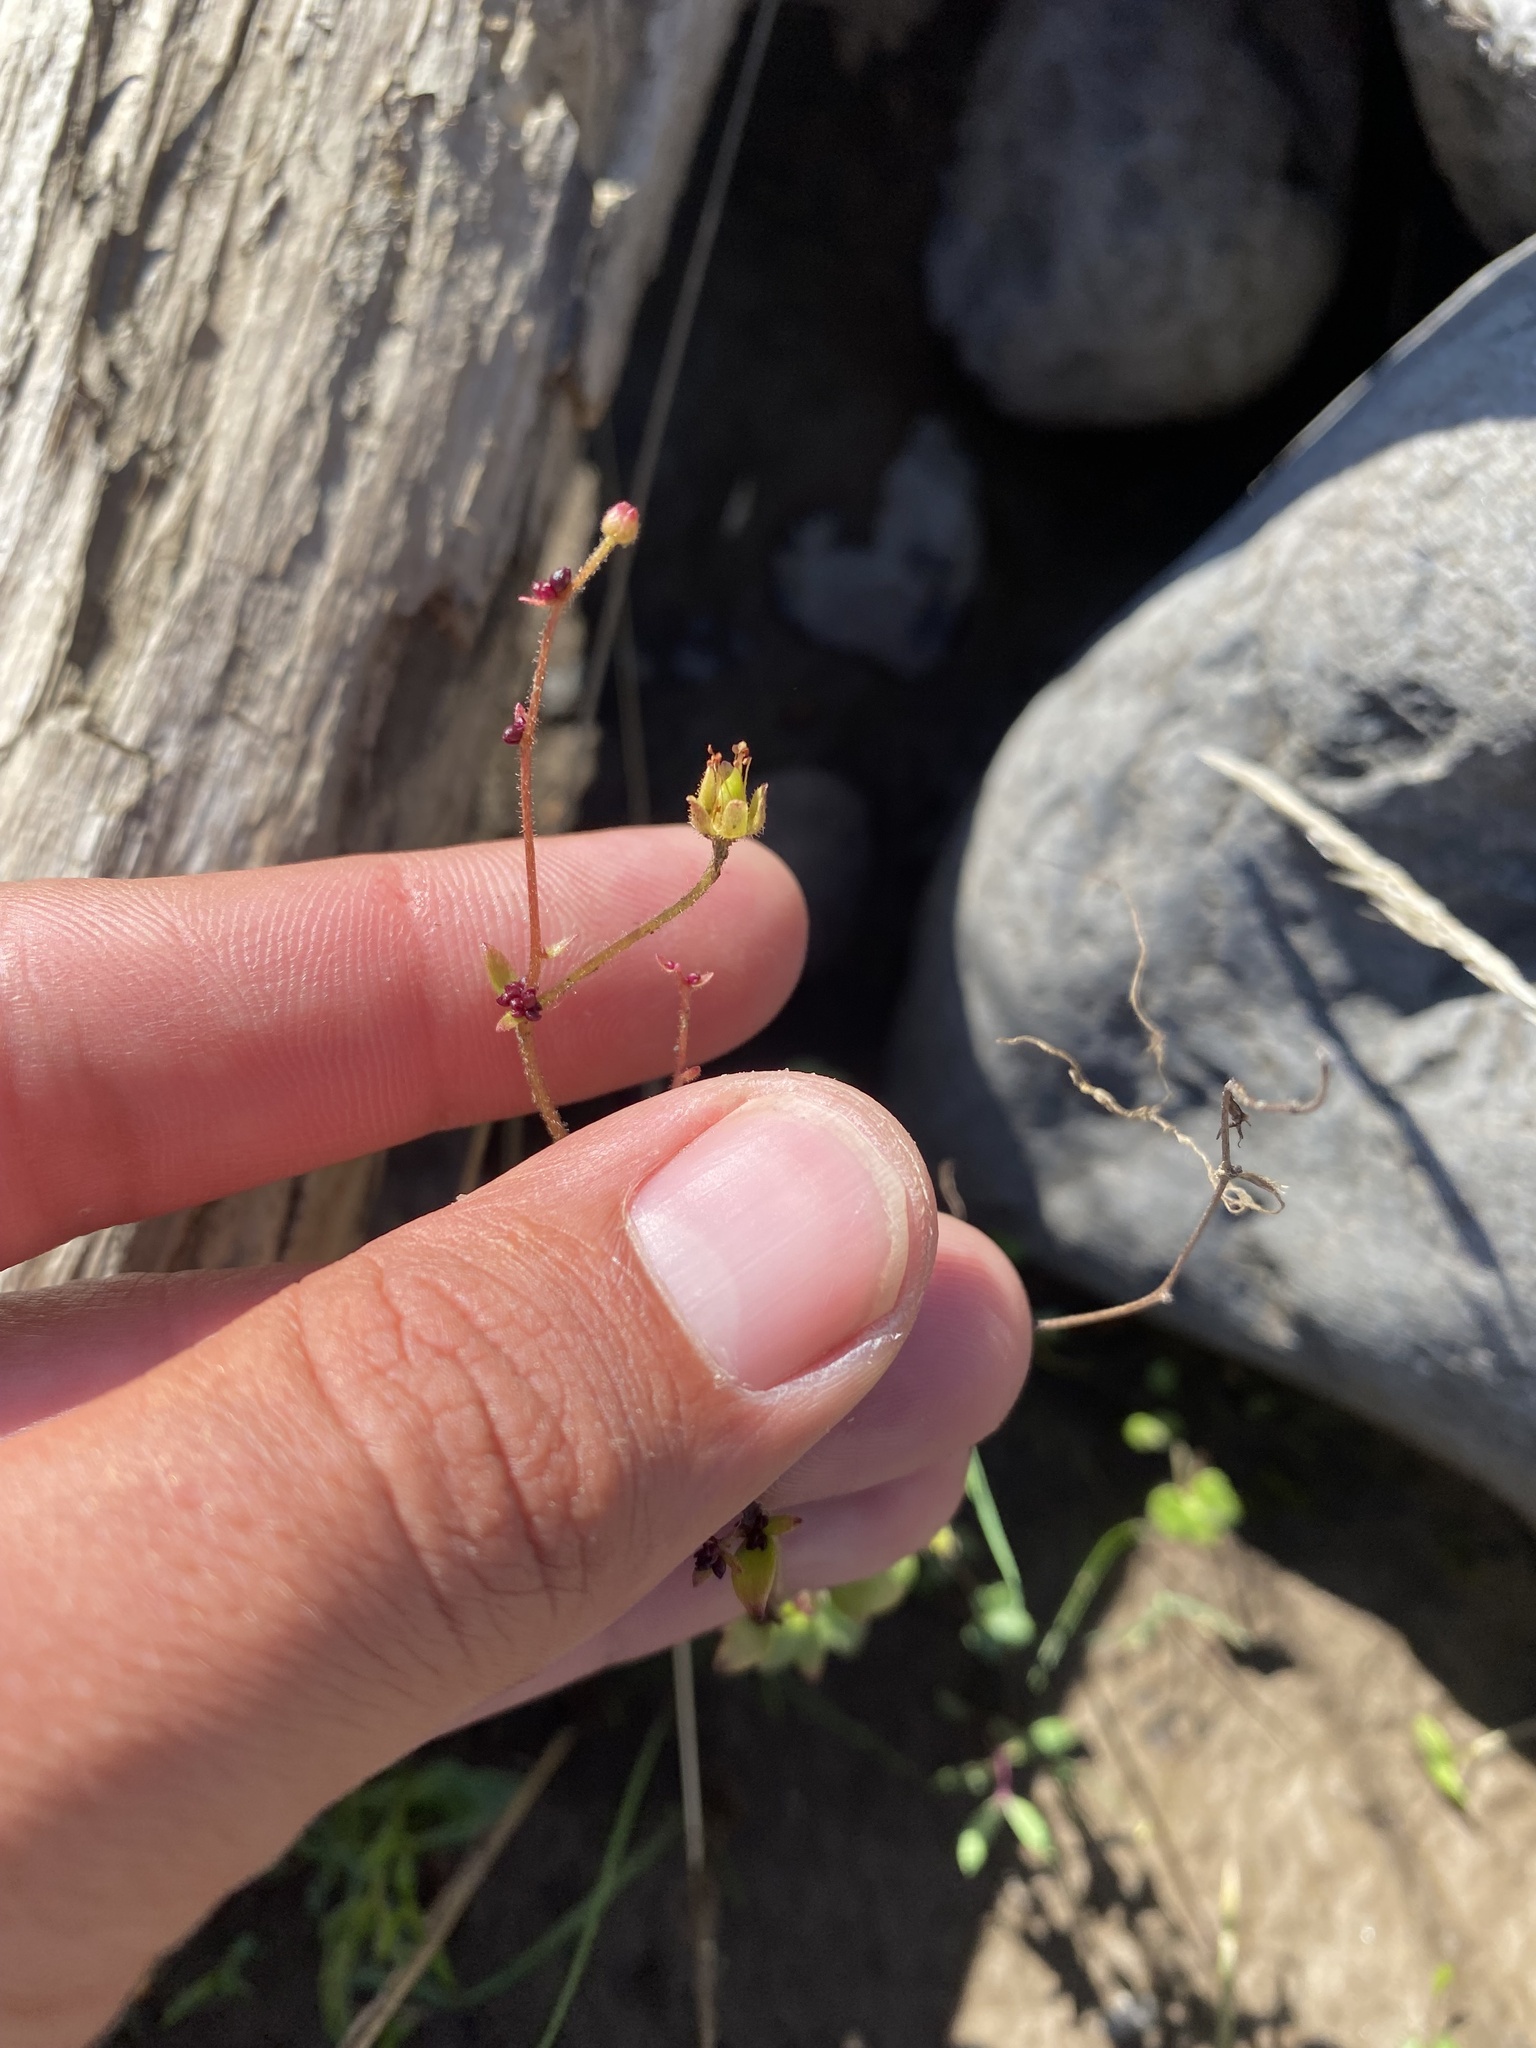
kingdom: Plantae
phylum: Tracheophyta
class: Magnoliopsida
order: Saxifragales
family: Saxifragaceae
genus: Saxifraga
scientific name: Saxifraga cernua
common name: Drooping saxifrage
